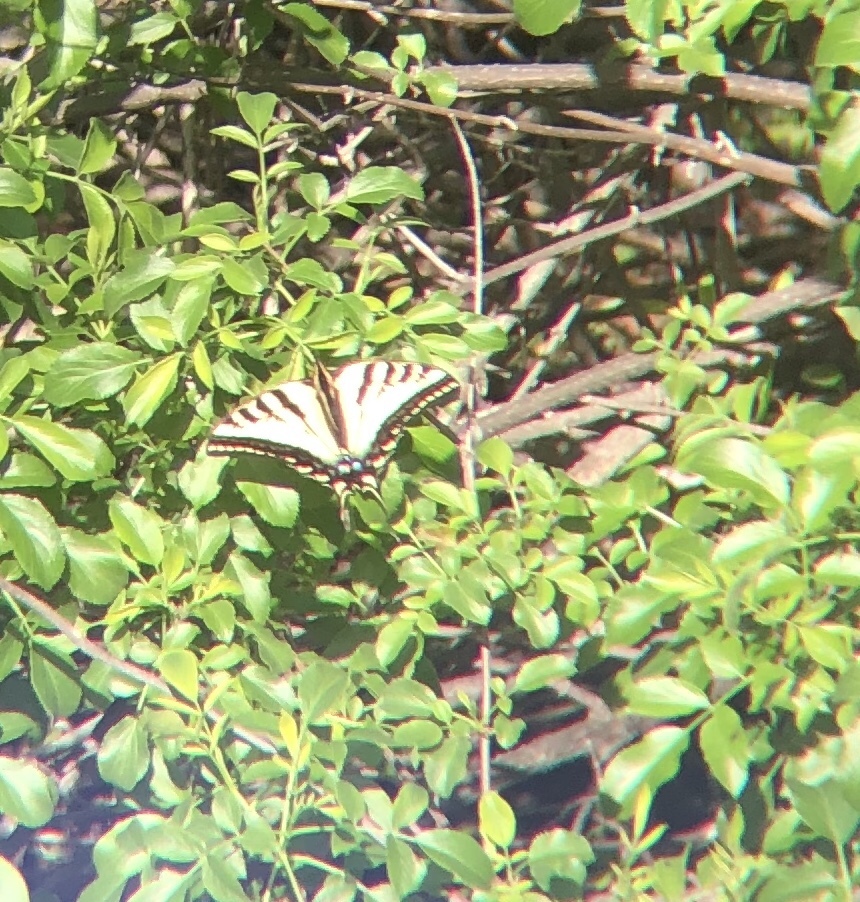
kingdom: Animalia
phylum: Arthropoda
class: Insecta
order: Lepidoptera
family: Papilionidae
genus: Papilio
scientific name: Papilio rutulus
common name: Western tiger swallowtail
